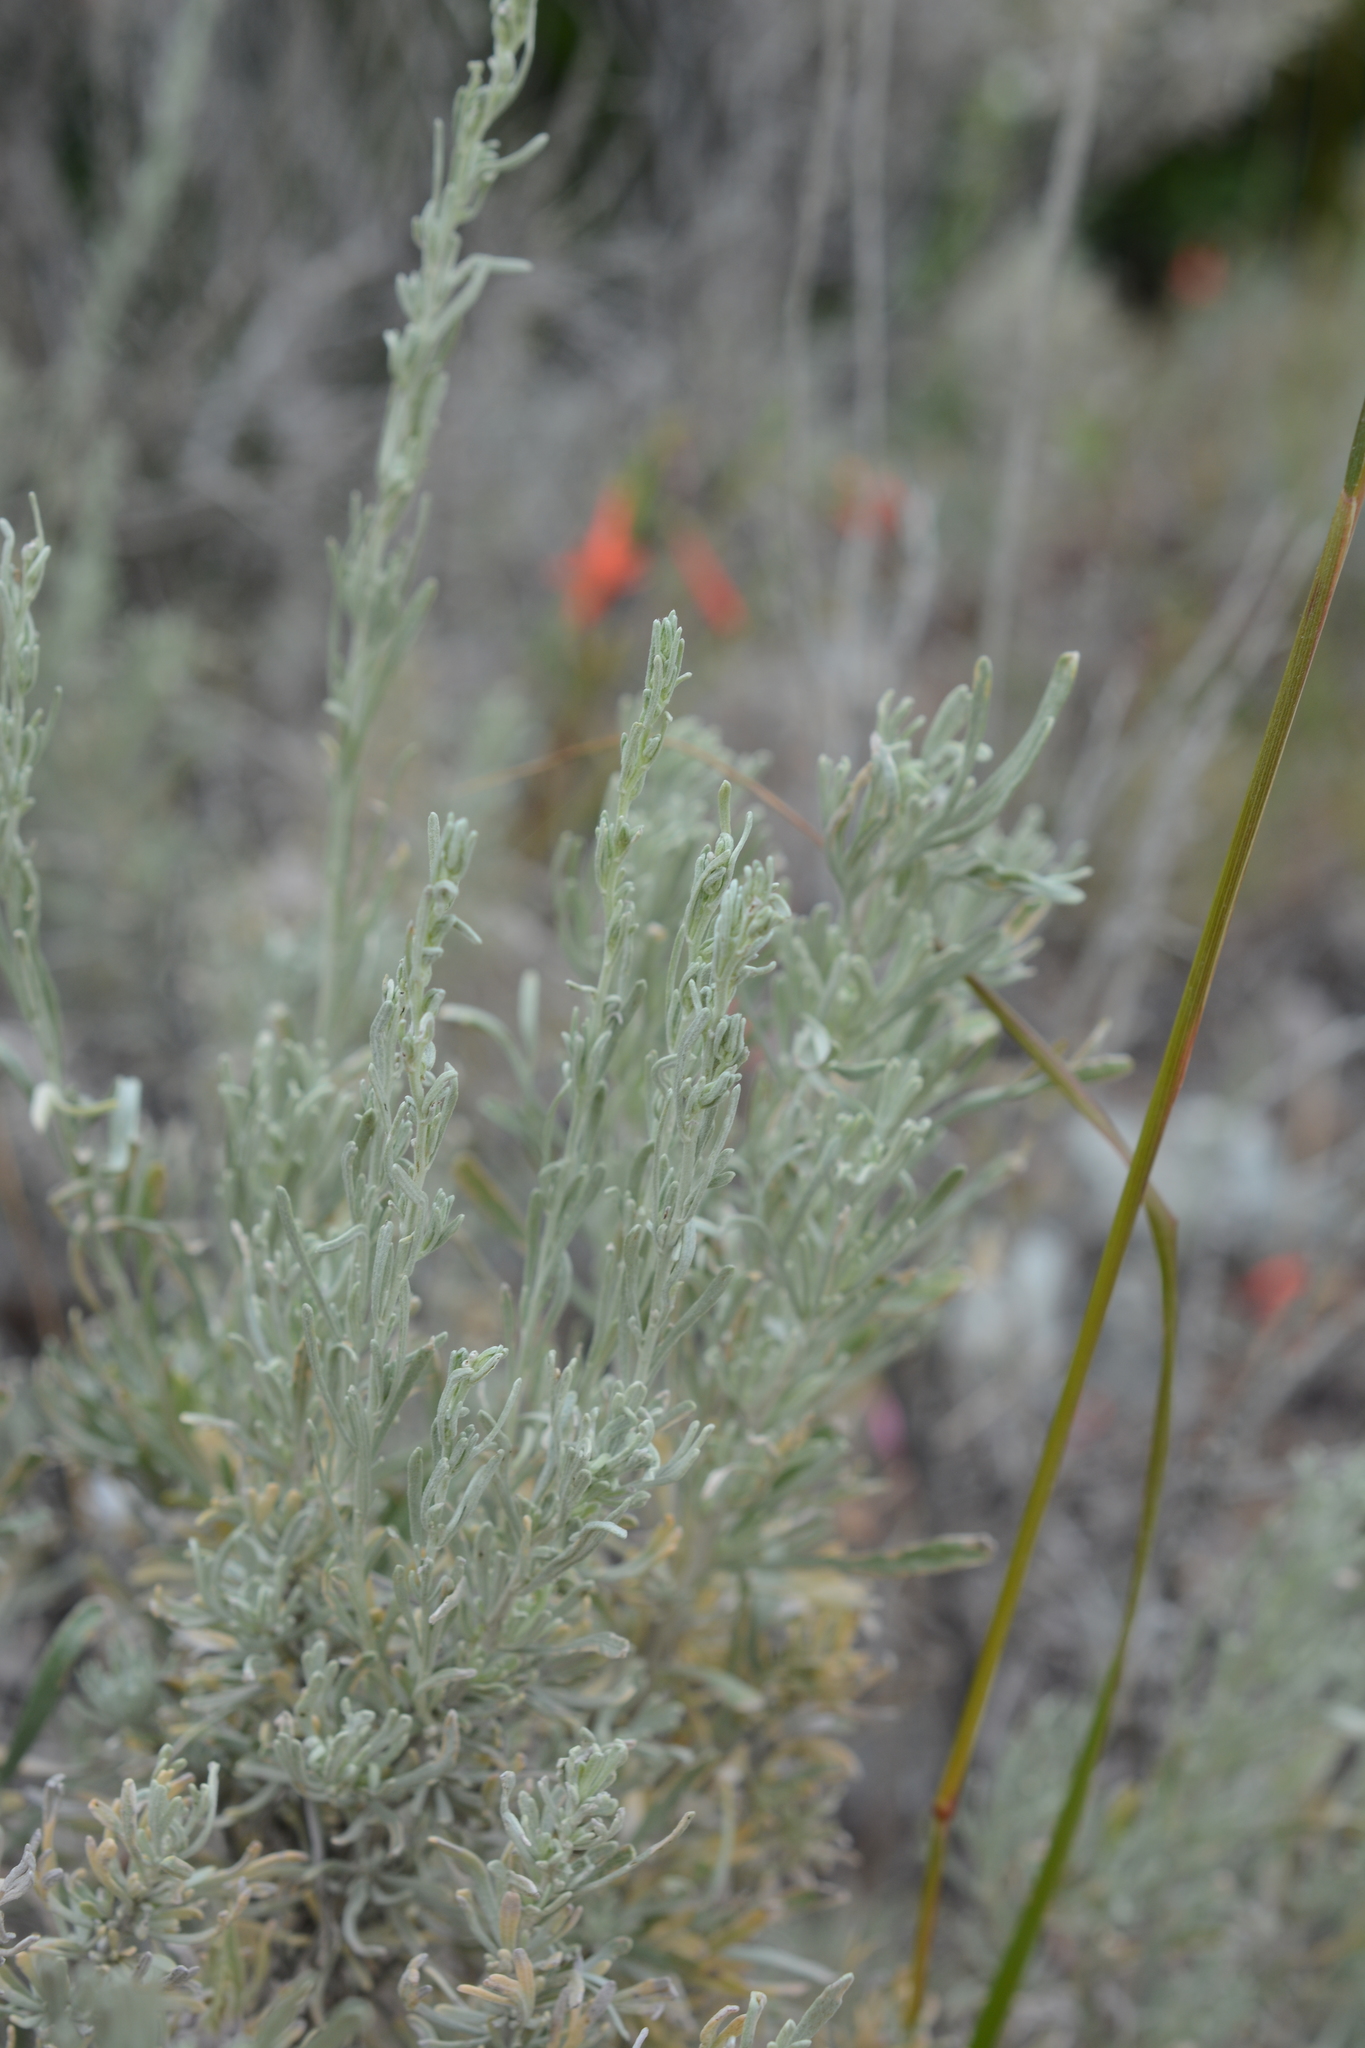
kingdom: Plantae
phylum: Tracheophyta
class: Magnoliopsida
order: Asterales
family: Asteraceae
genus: Artemisia
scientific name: Artemisia tripartita
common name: Three-tip sagebrush
